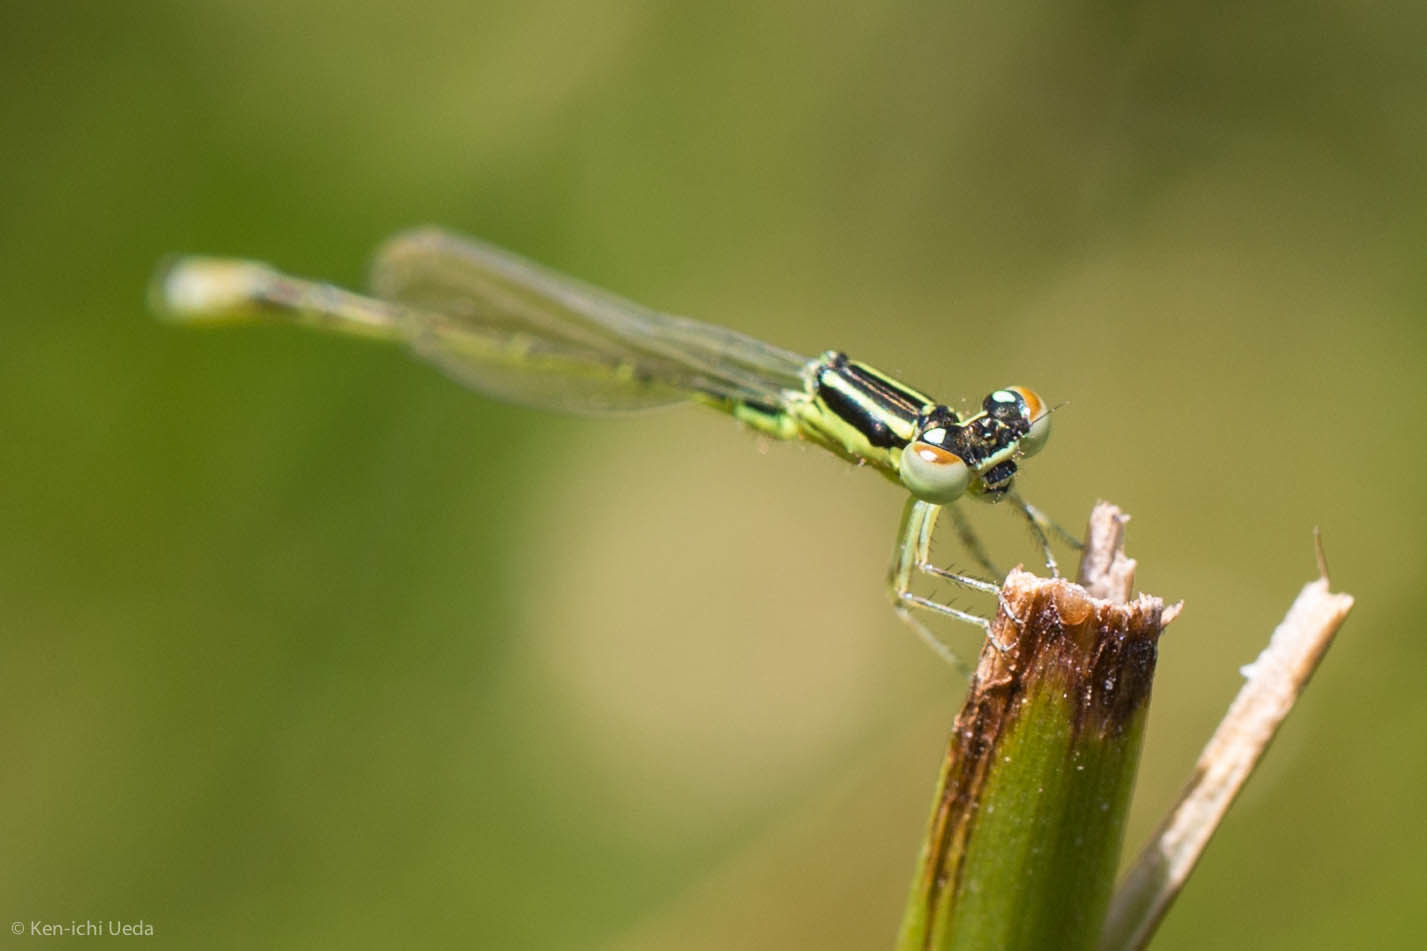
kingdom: Animalia
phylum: Arthropoda
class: Insecta
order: Odonata
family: Coenagrionidae
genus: Ischnura
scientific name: Ischnura perparva
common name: Western forktail
